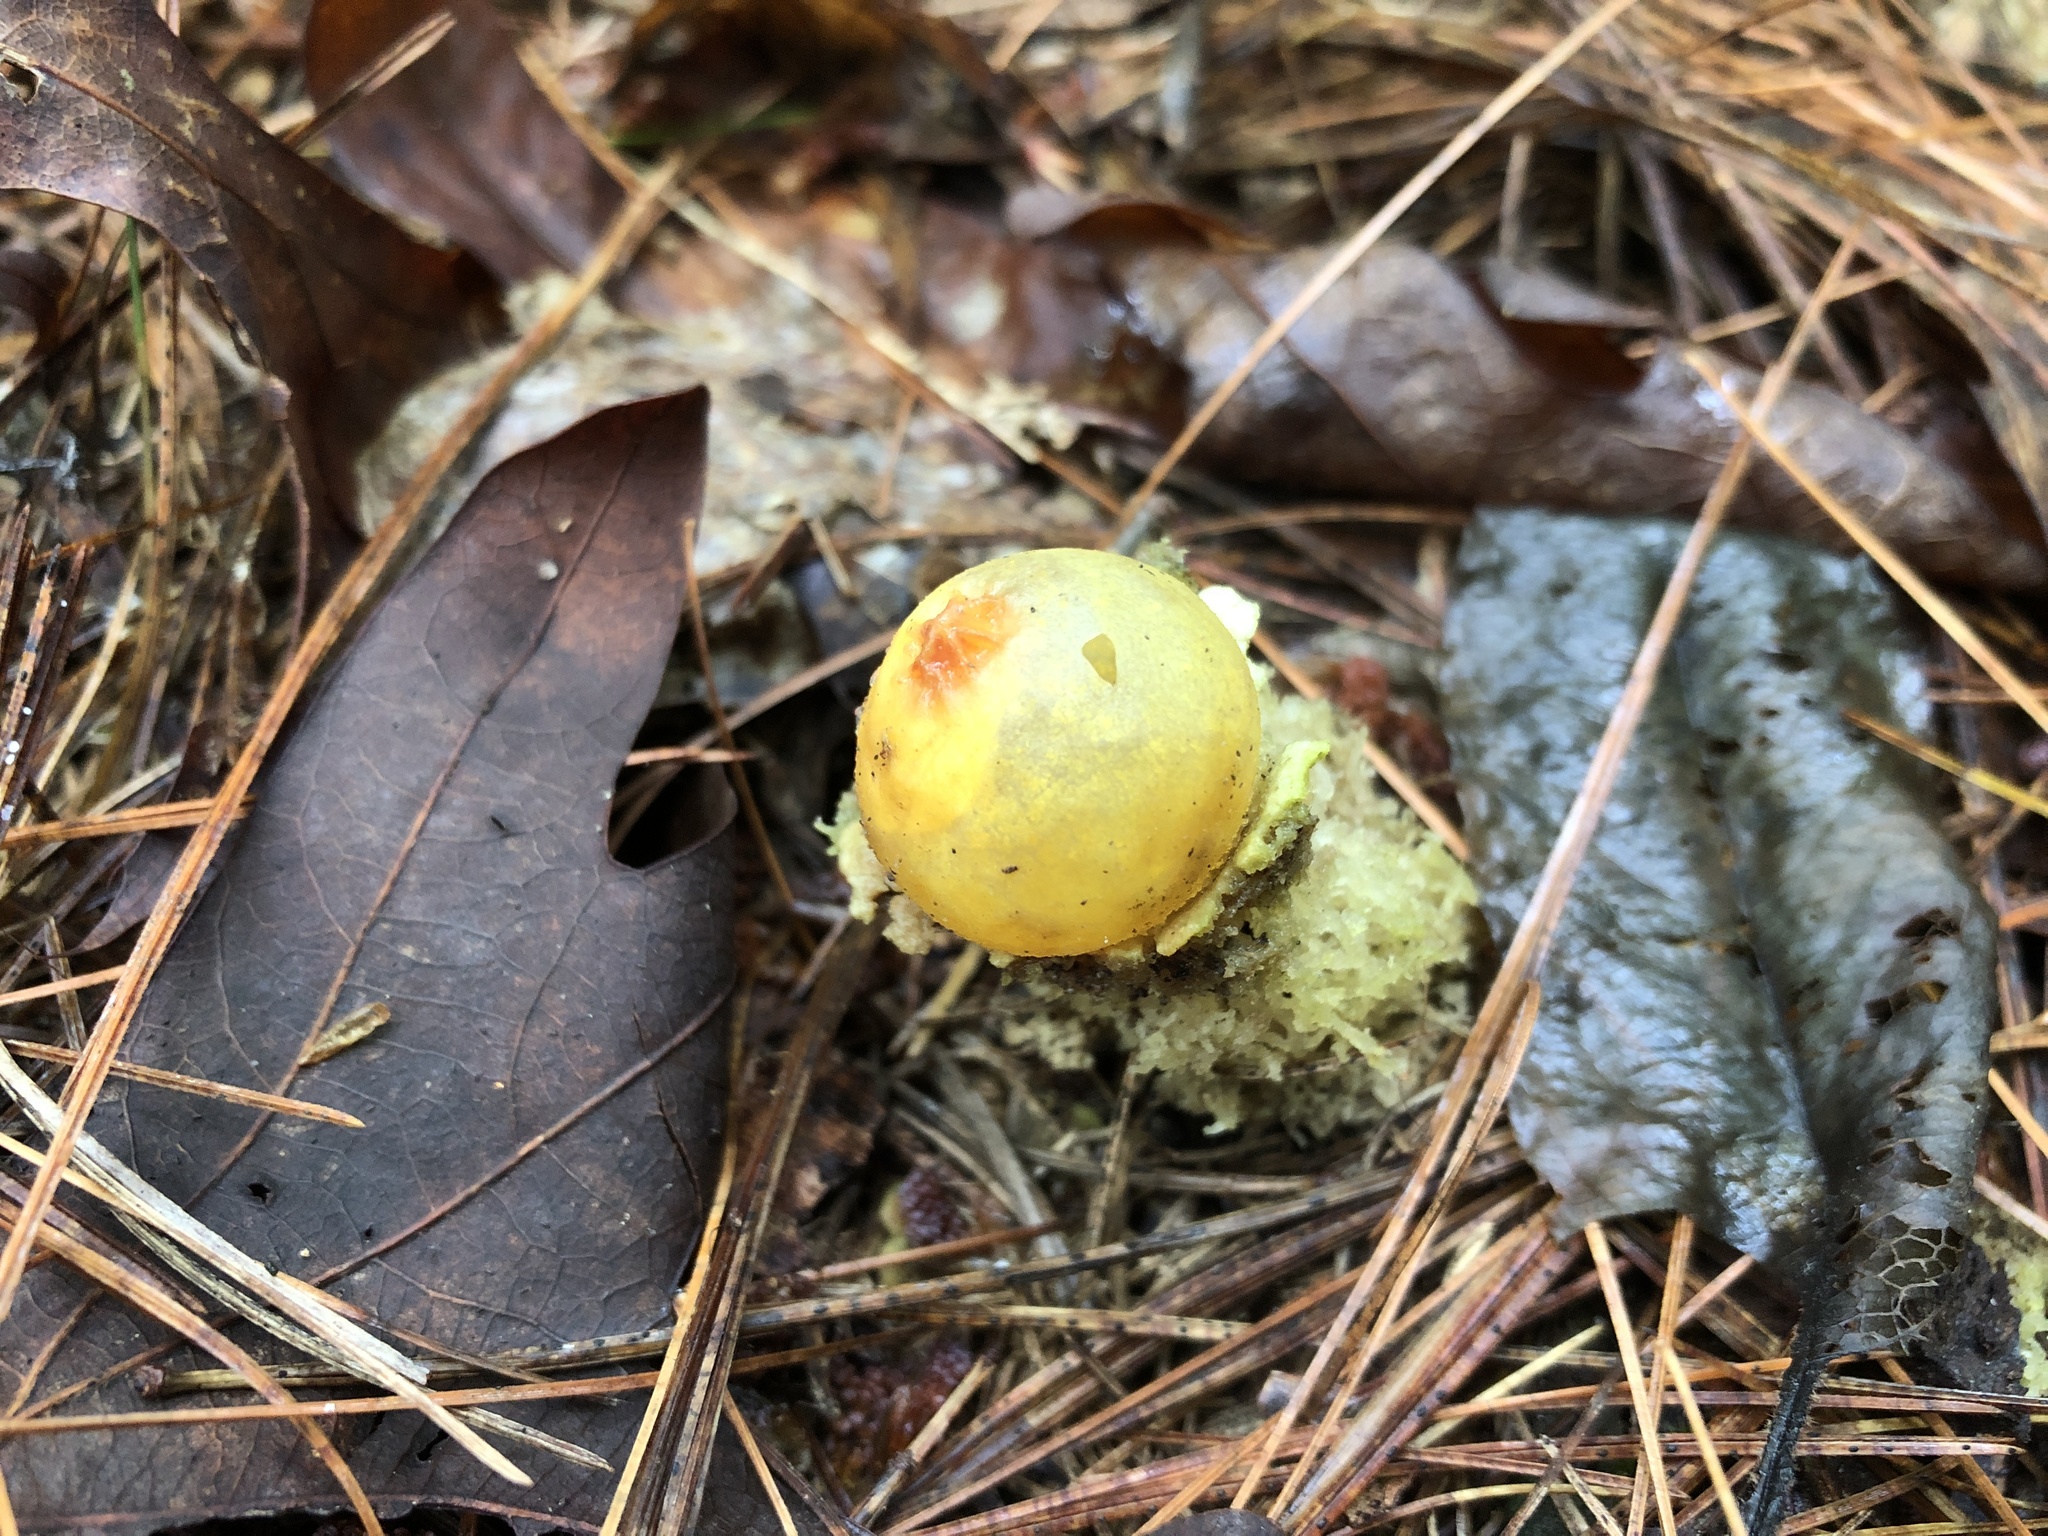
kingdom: Fungi
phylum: Basidiomycota
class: Agaricomycetes
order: Boletales
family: Calostomataceae
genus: Calostoma
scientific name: Calostoma lutescens
